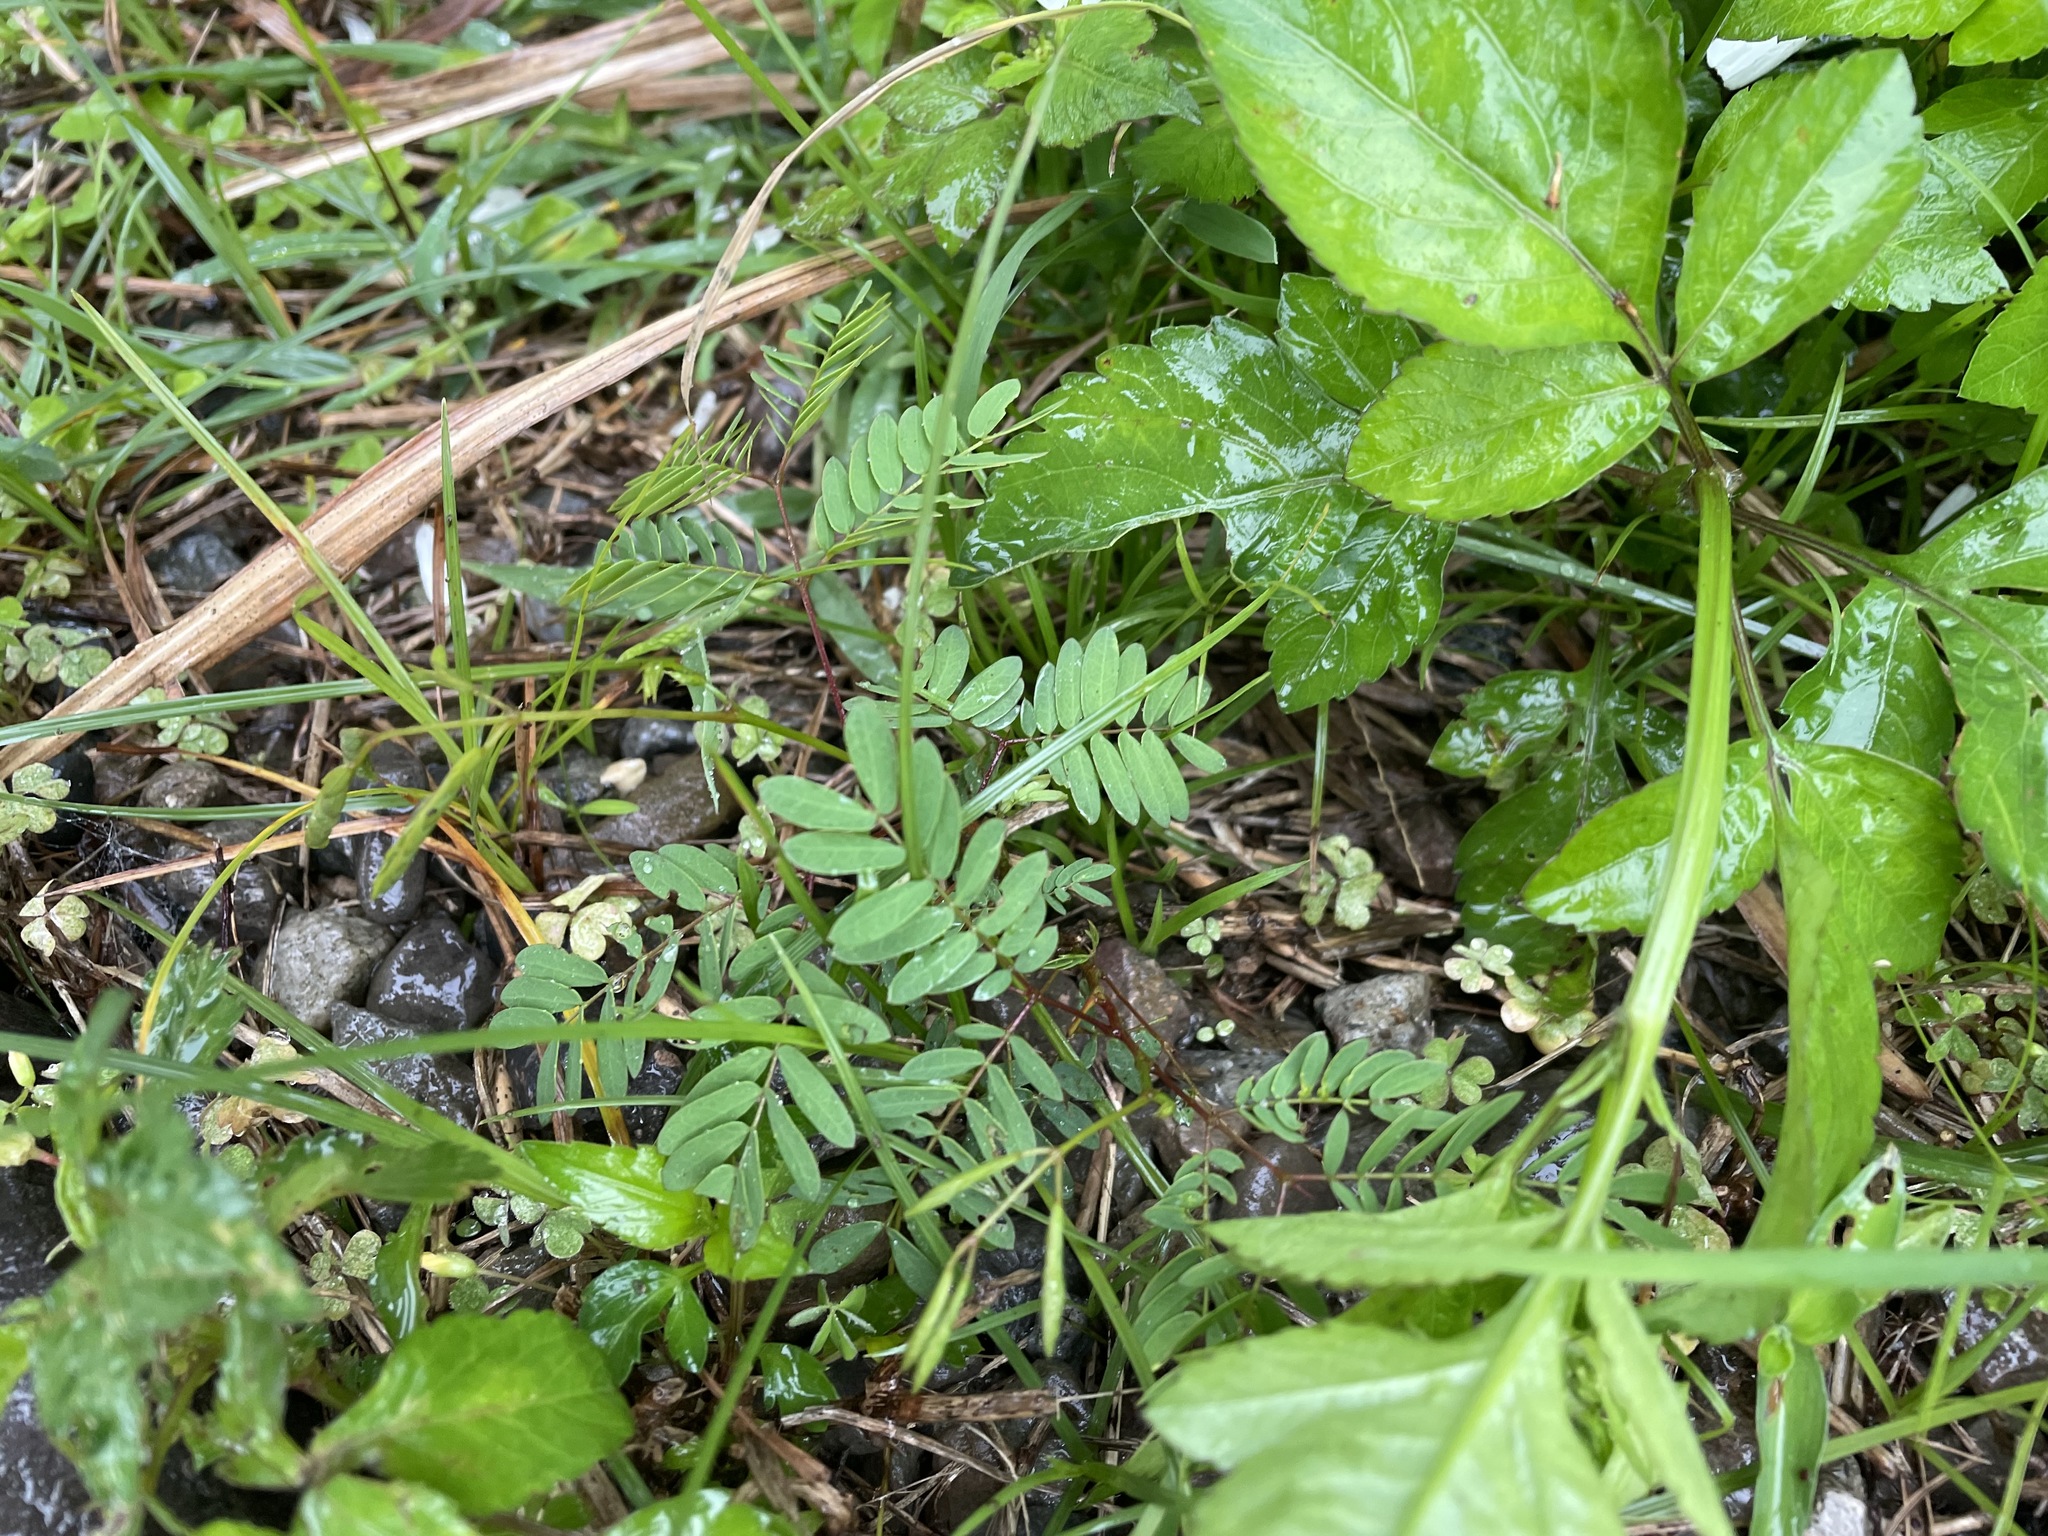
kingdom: Plantae
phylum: Tracheophyta
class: Magnoliopsida
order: Fabales
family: Fabaceae
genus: Leucaena
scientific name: Leucaena leucocephala
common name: White leadtree
